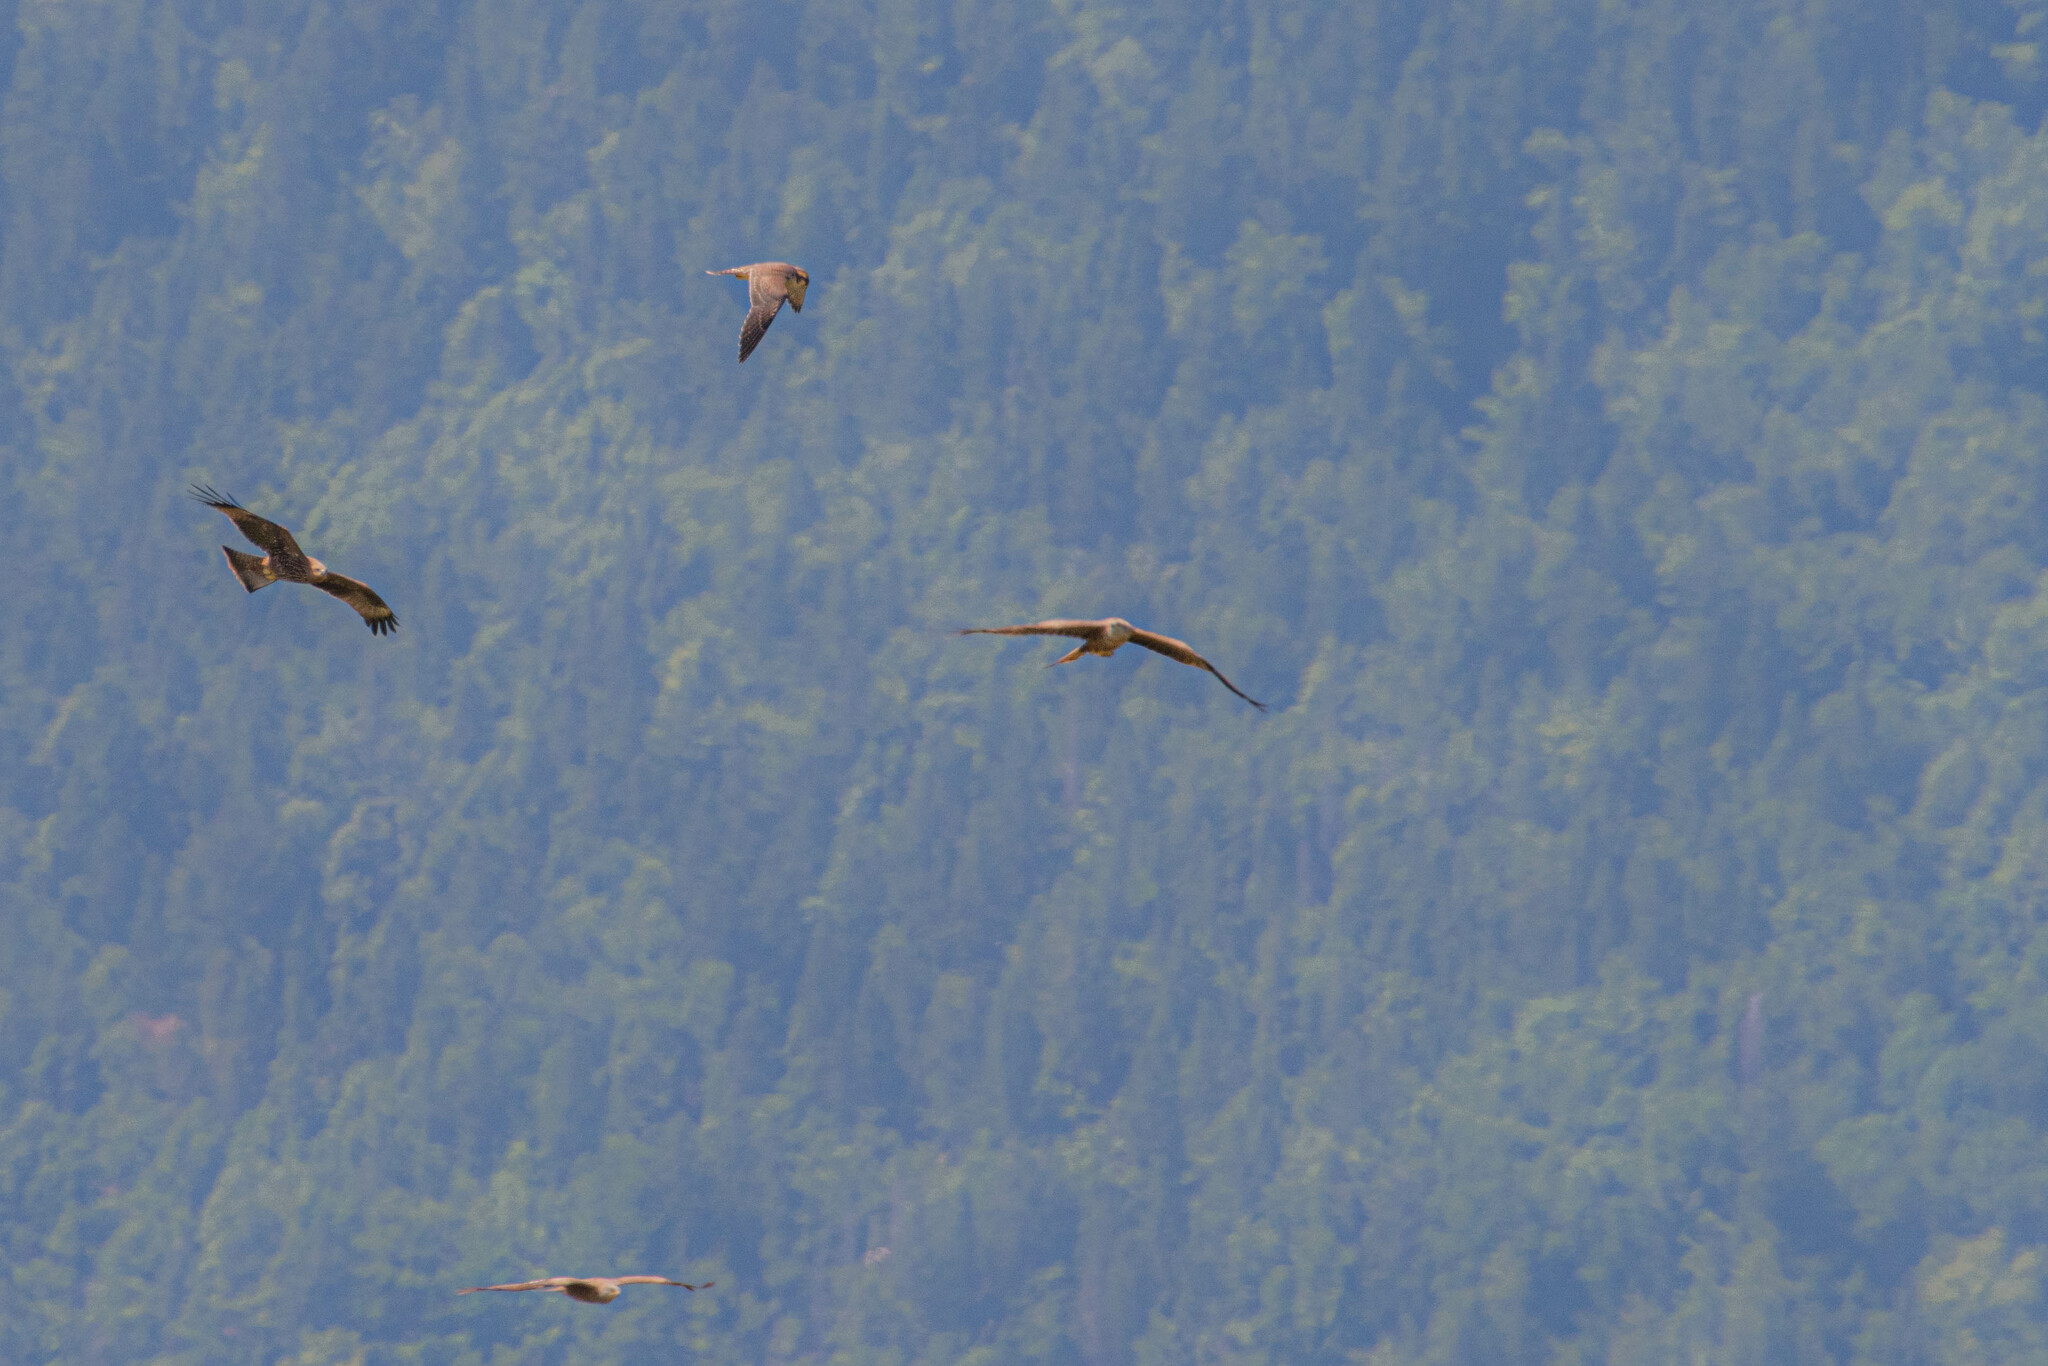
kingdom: Animalia
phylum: Chordata
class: Aves
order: Accipitriformes
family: Accipitridae
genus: Milvus
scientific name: Milvus migrans
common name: Black kite
